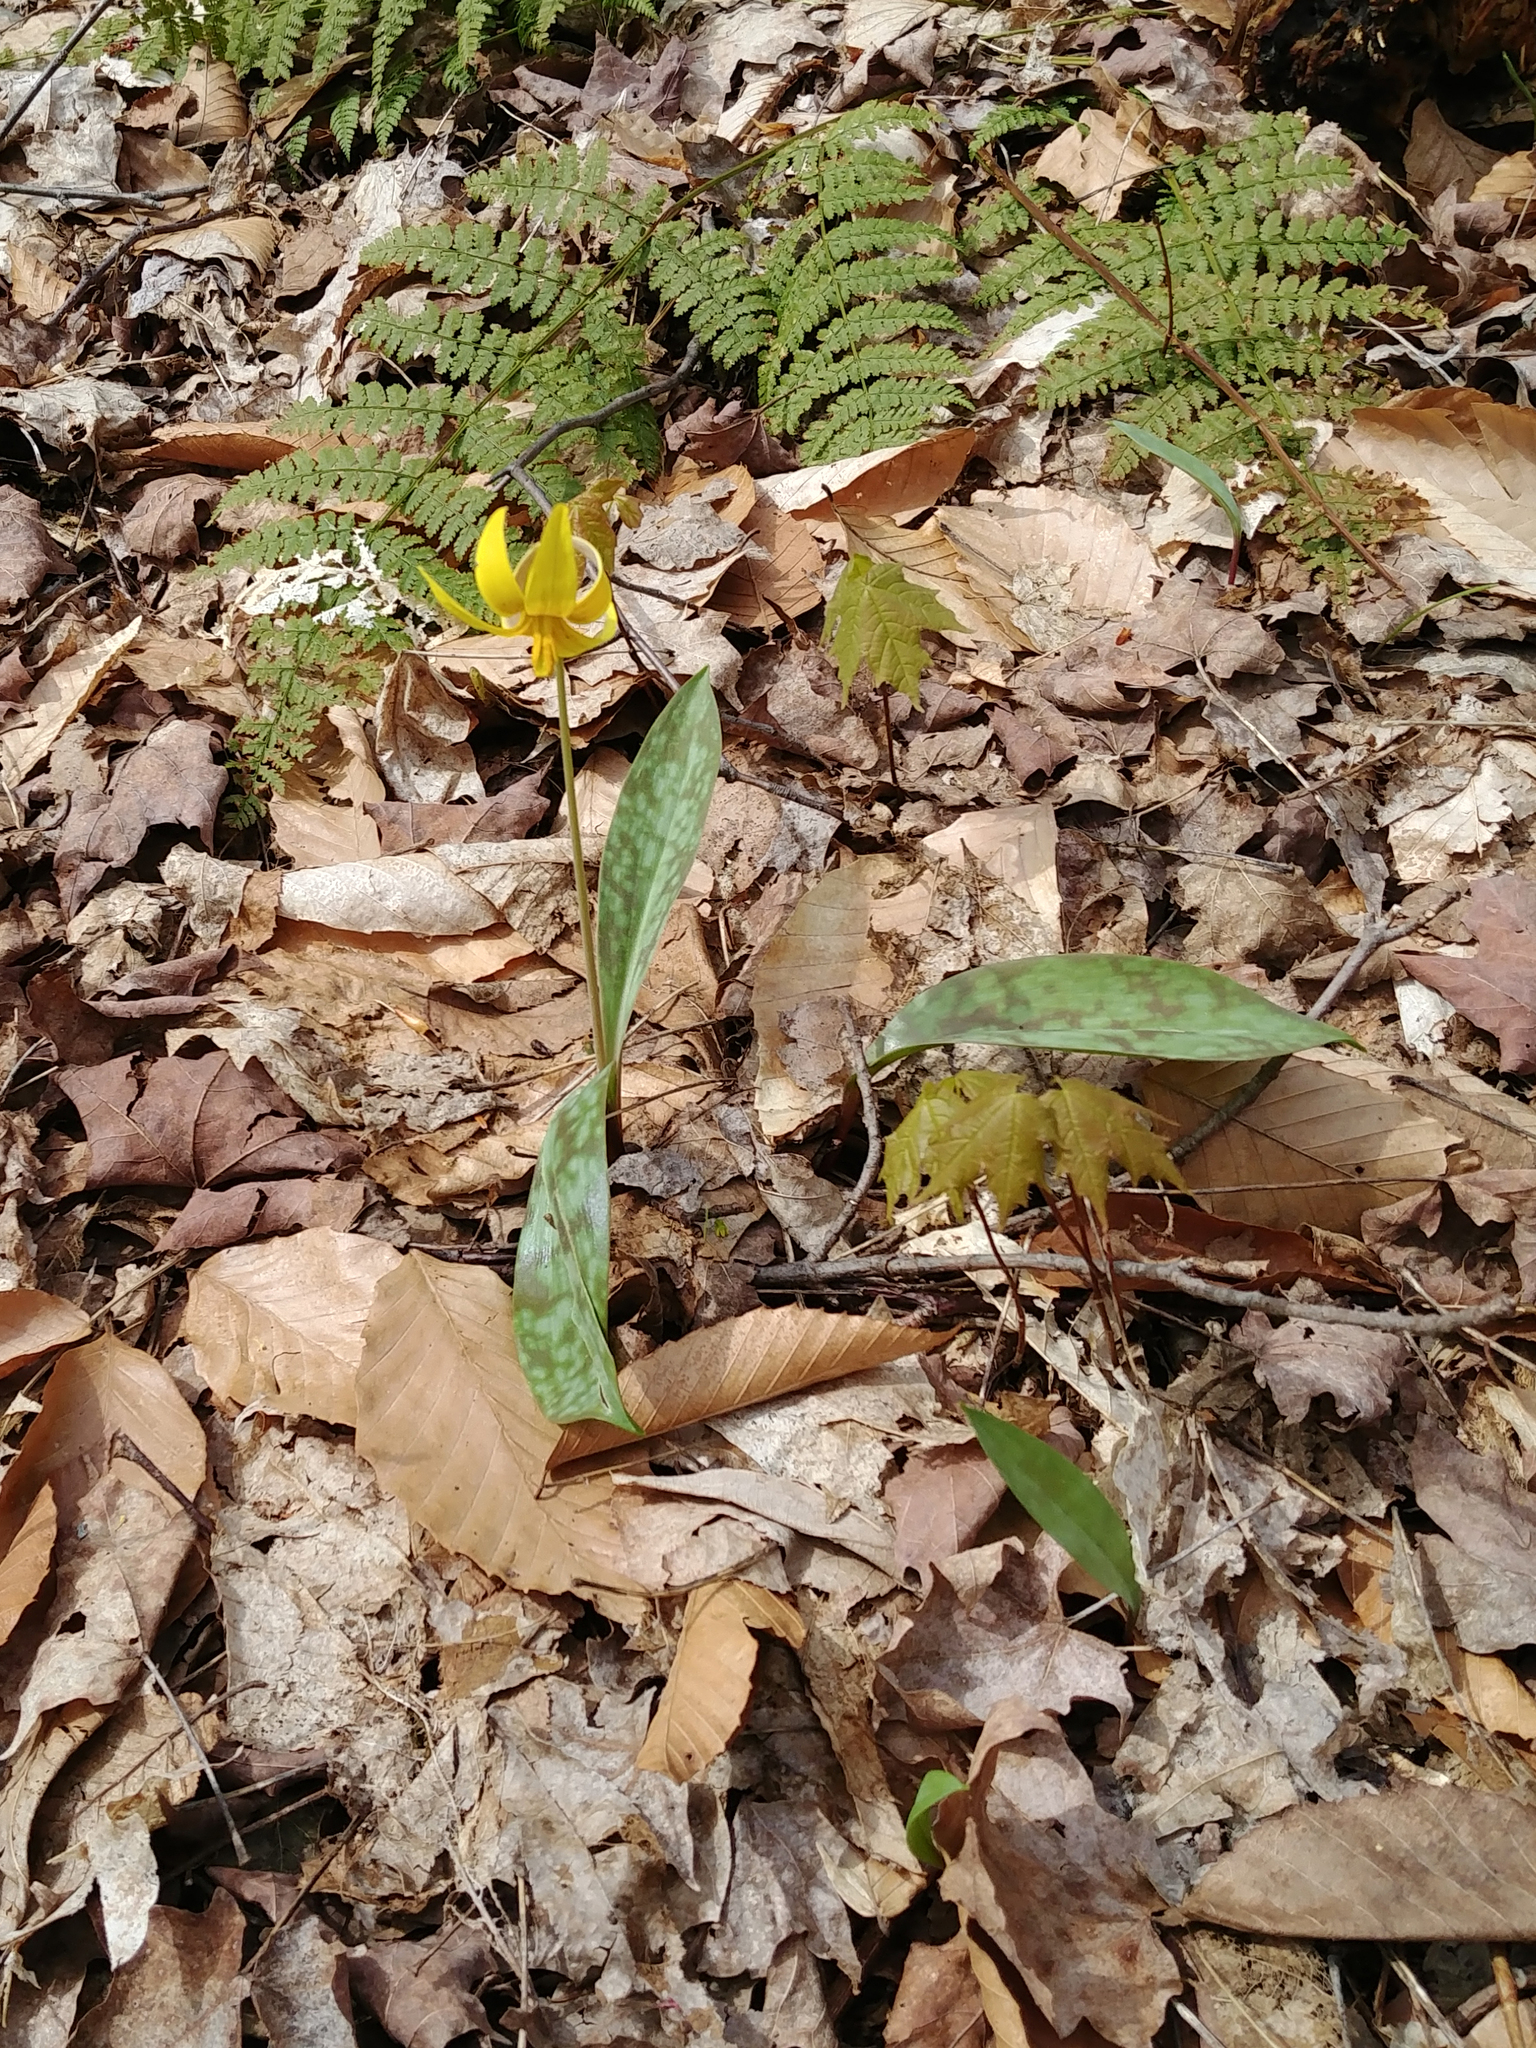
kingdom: Plantae
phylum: Tracheophyta
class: Liliopsida
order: Liliales
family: Liliaceae
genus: Erythronium
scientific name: Erythronium americanum
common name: Yellow adder's-tongue
